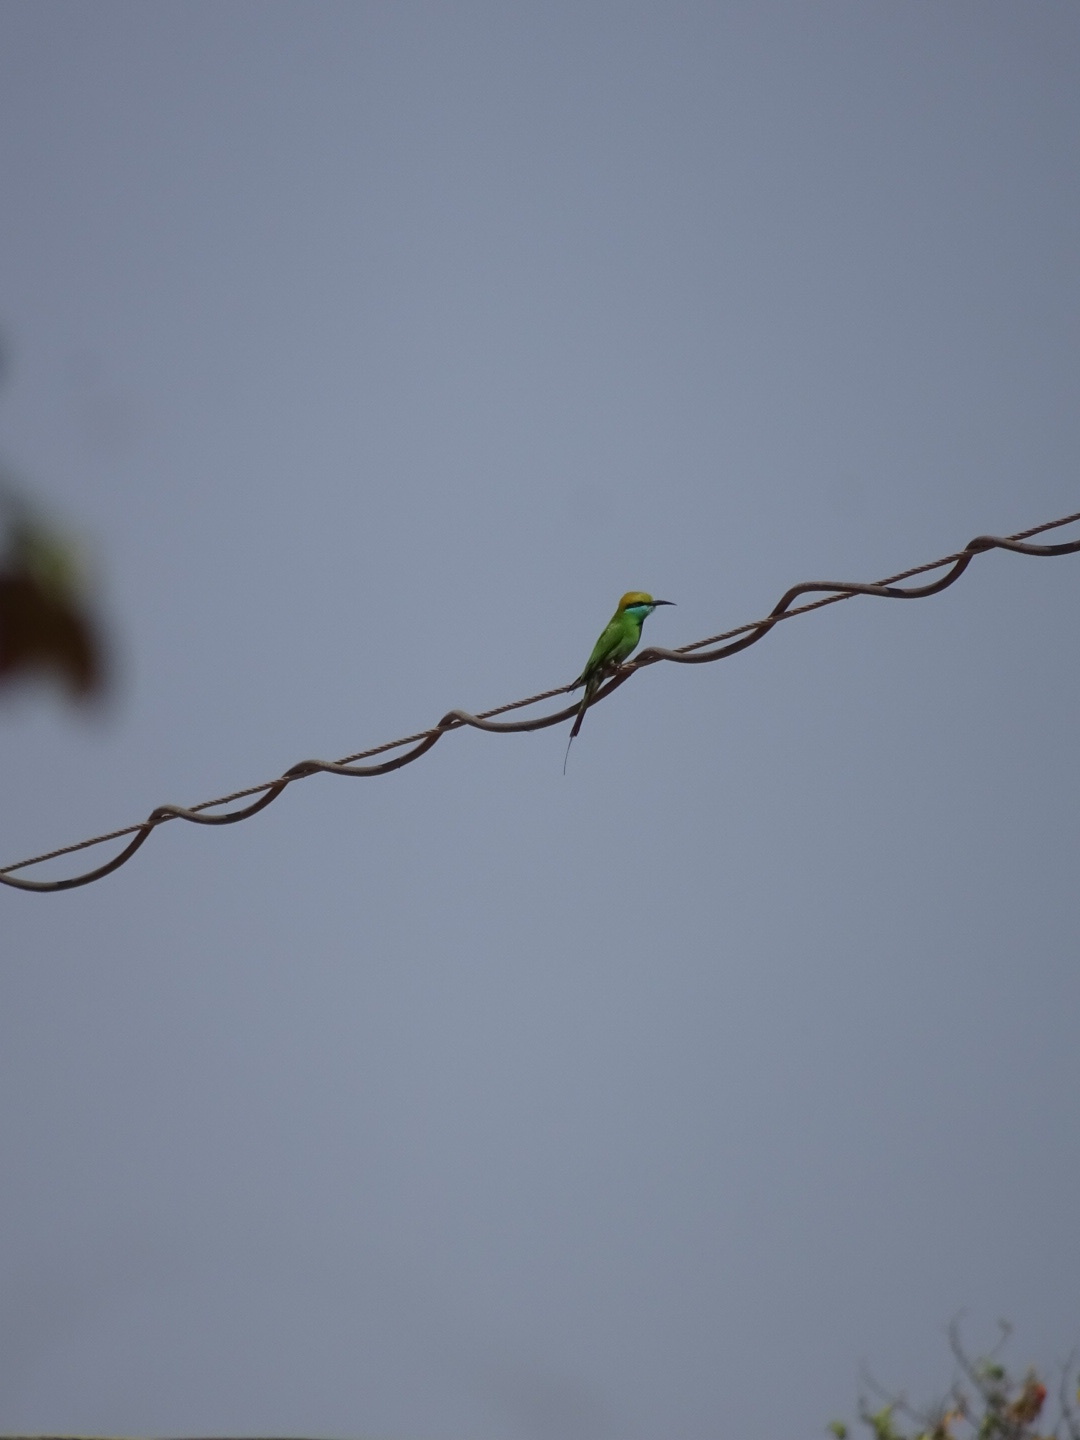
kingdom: Animalia
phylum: Chordata
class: Aves
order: Coraciiformes
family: Meropidae
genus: Merops
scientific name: Merops orientalis
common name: Green bee-eater
